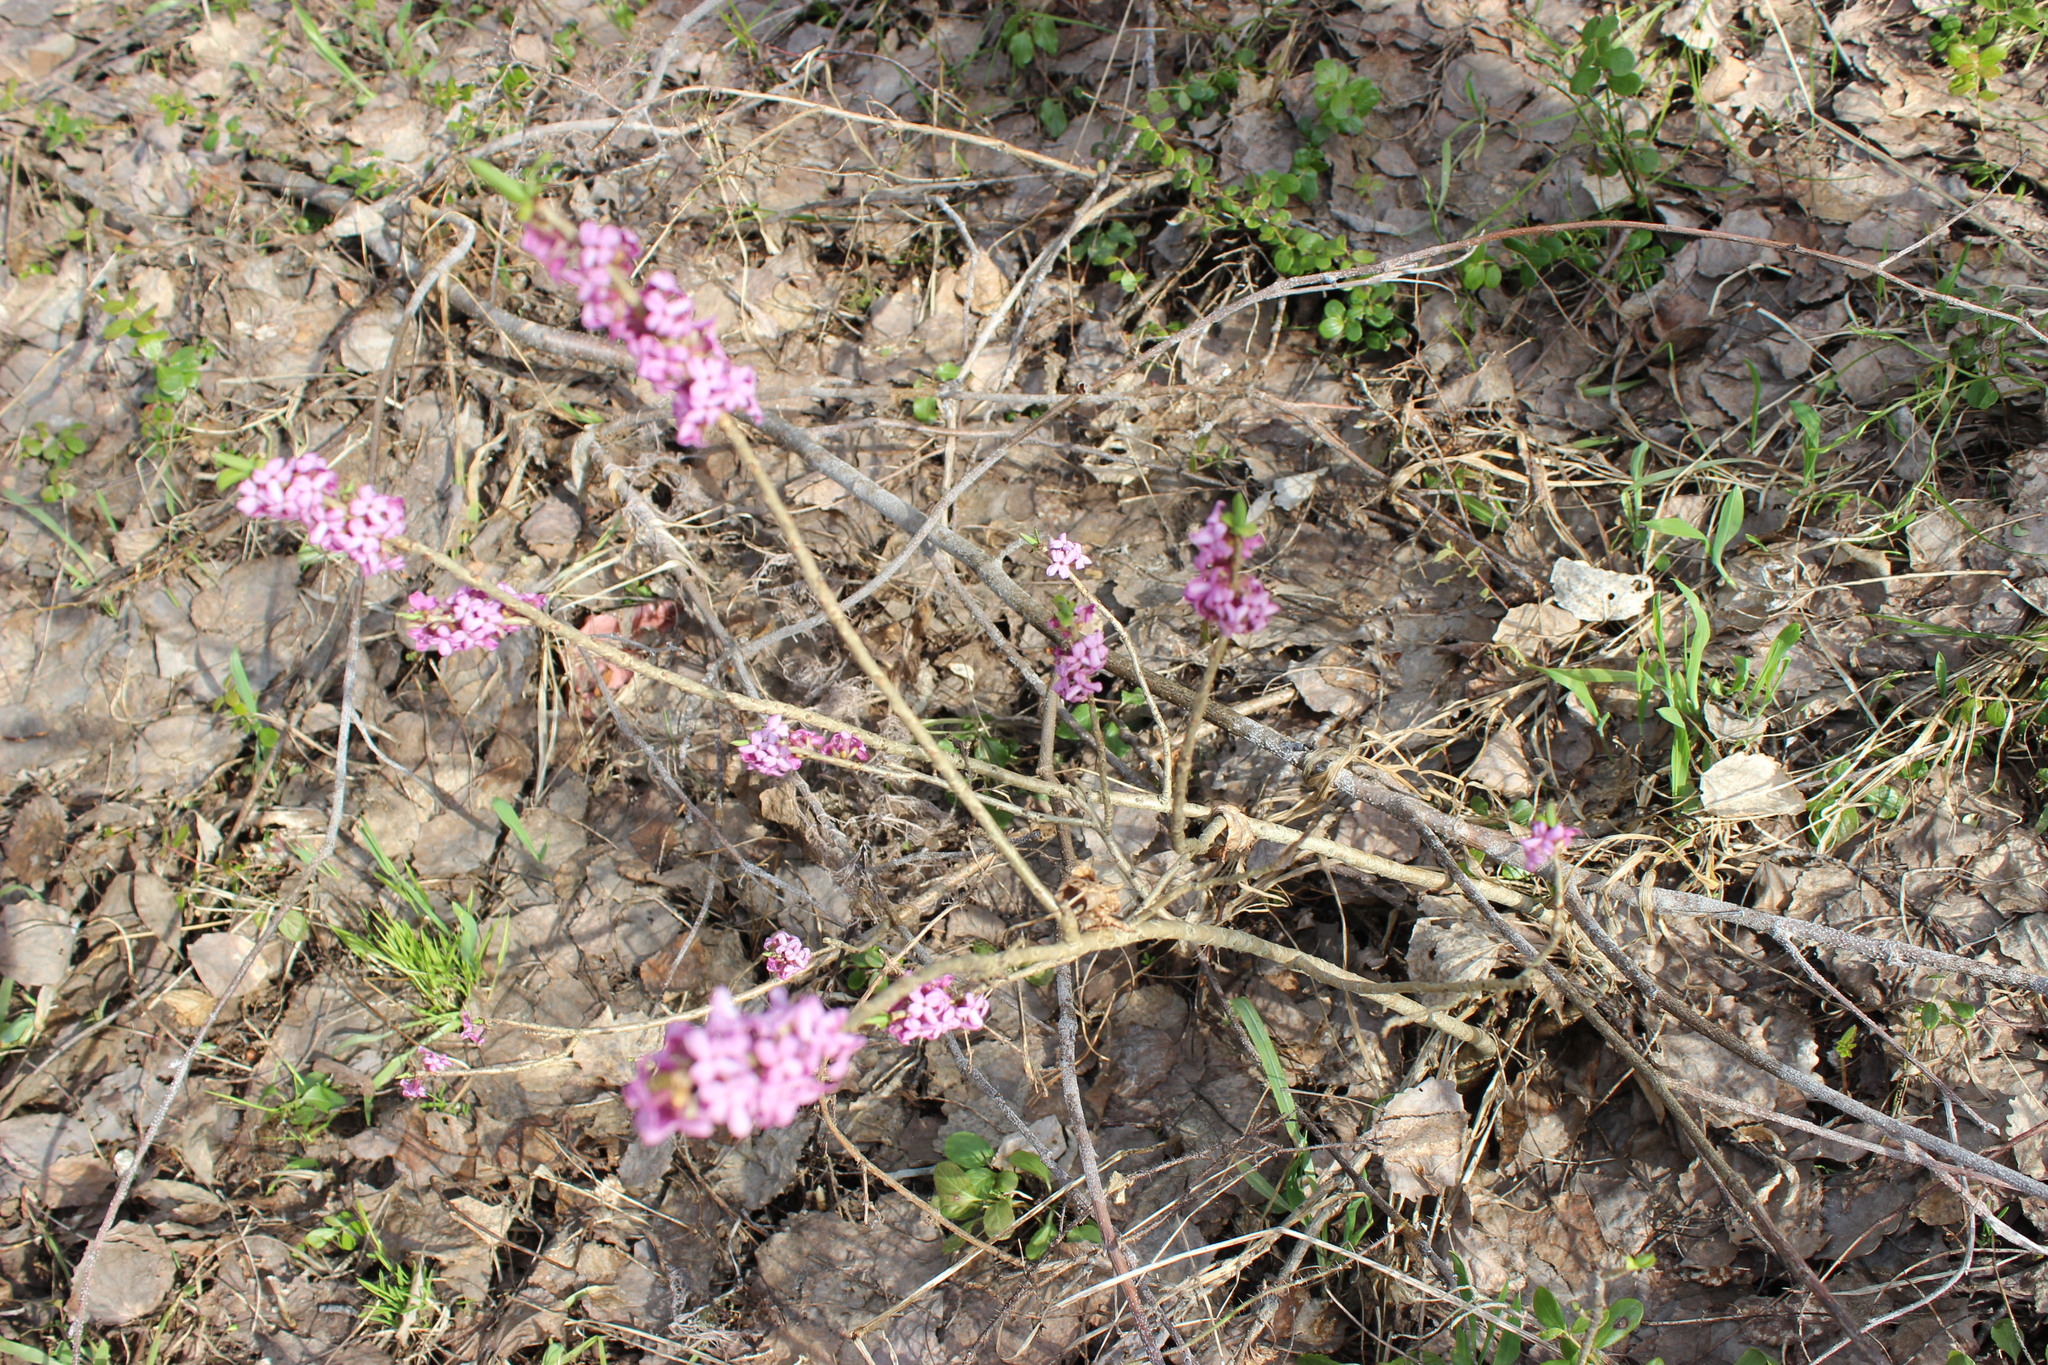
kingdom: Plantae
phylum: Tracheophyta
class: Magnoliopsida
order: Malvales
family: Thymelaeaceae
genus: Daphne
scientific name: Daphne mezereum
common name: Mezereon
